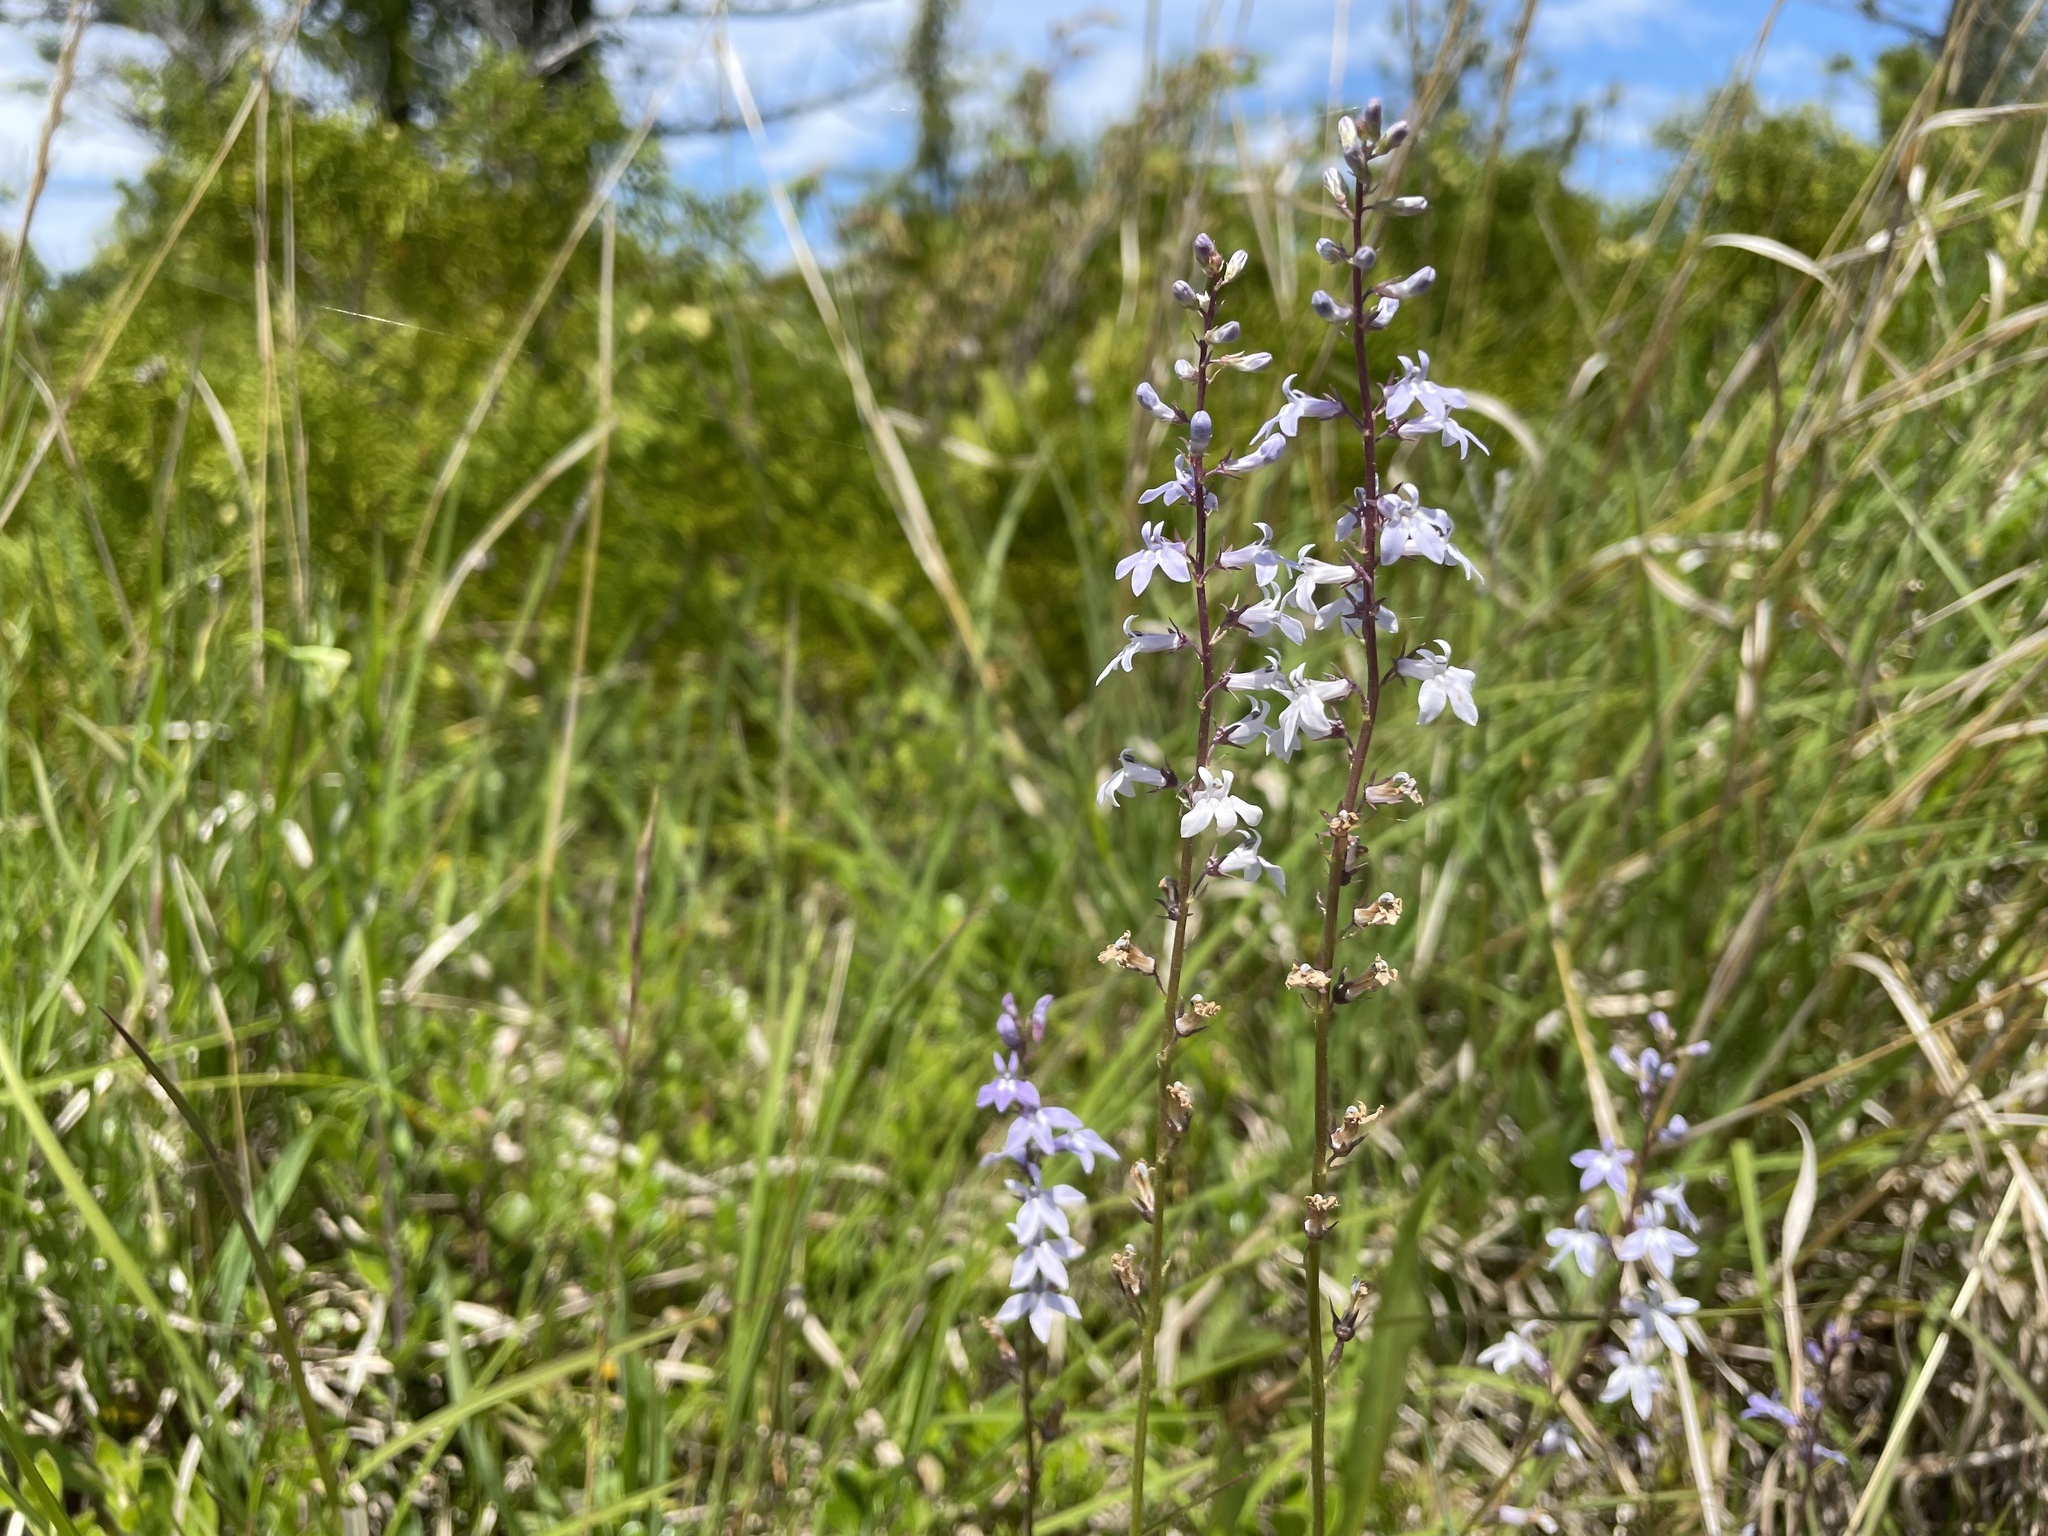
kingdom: Plantae
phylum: Tracheophyta
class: Magnoliopsida
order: Asterales
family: Campanulaceae
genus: Lobelia
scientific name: Lobelia spicata
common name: Pale-spike lobelia
